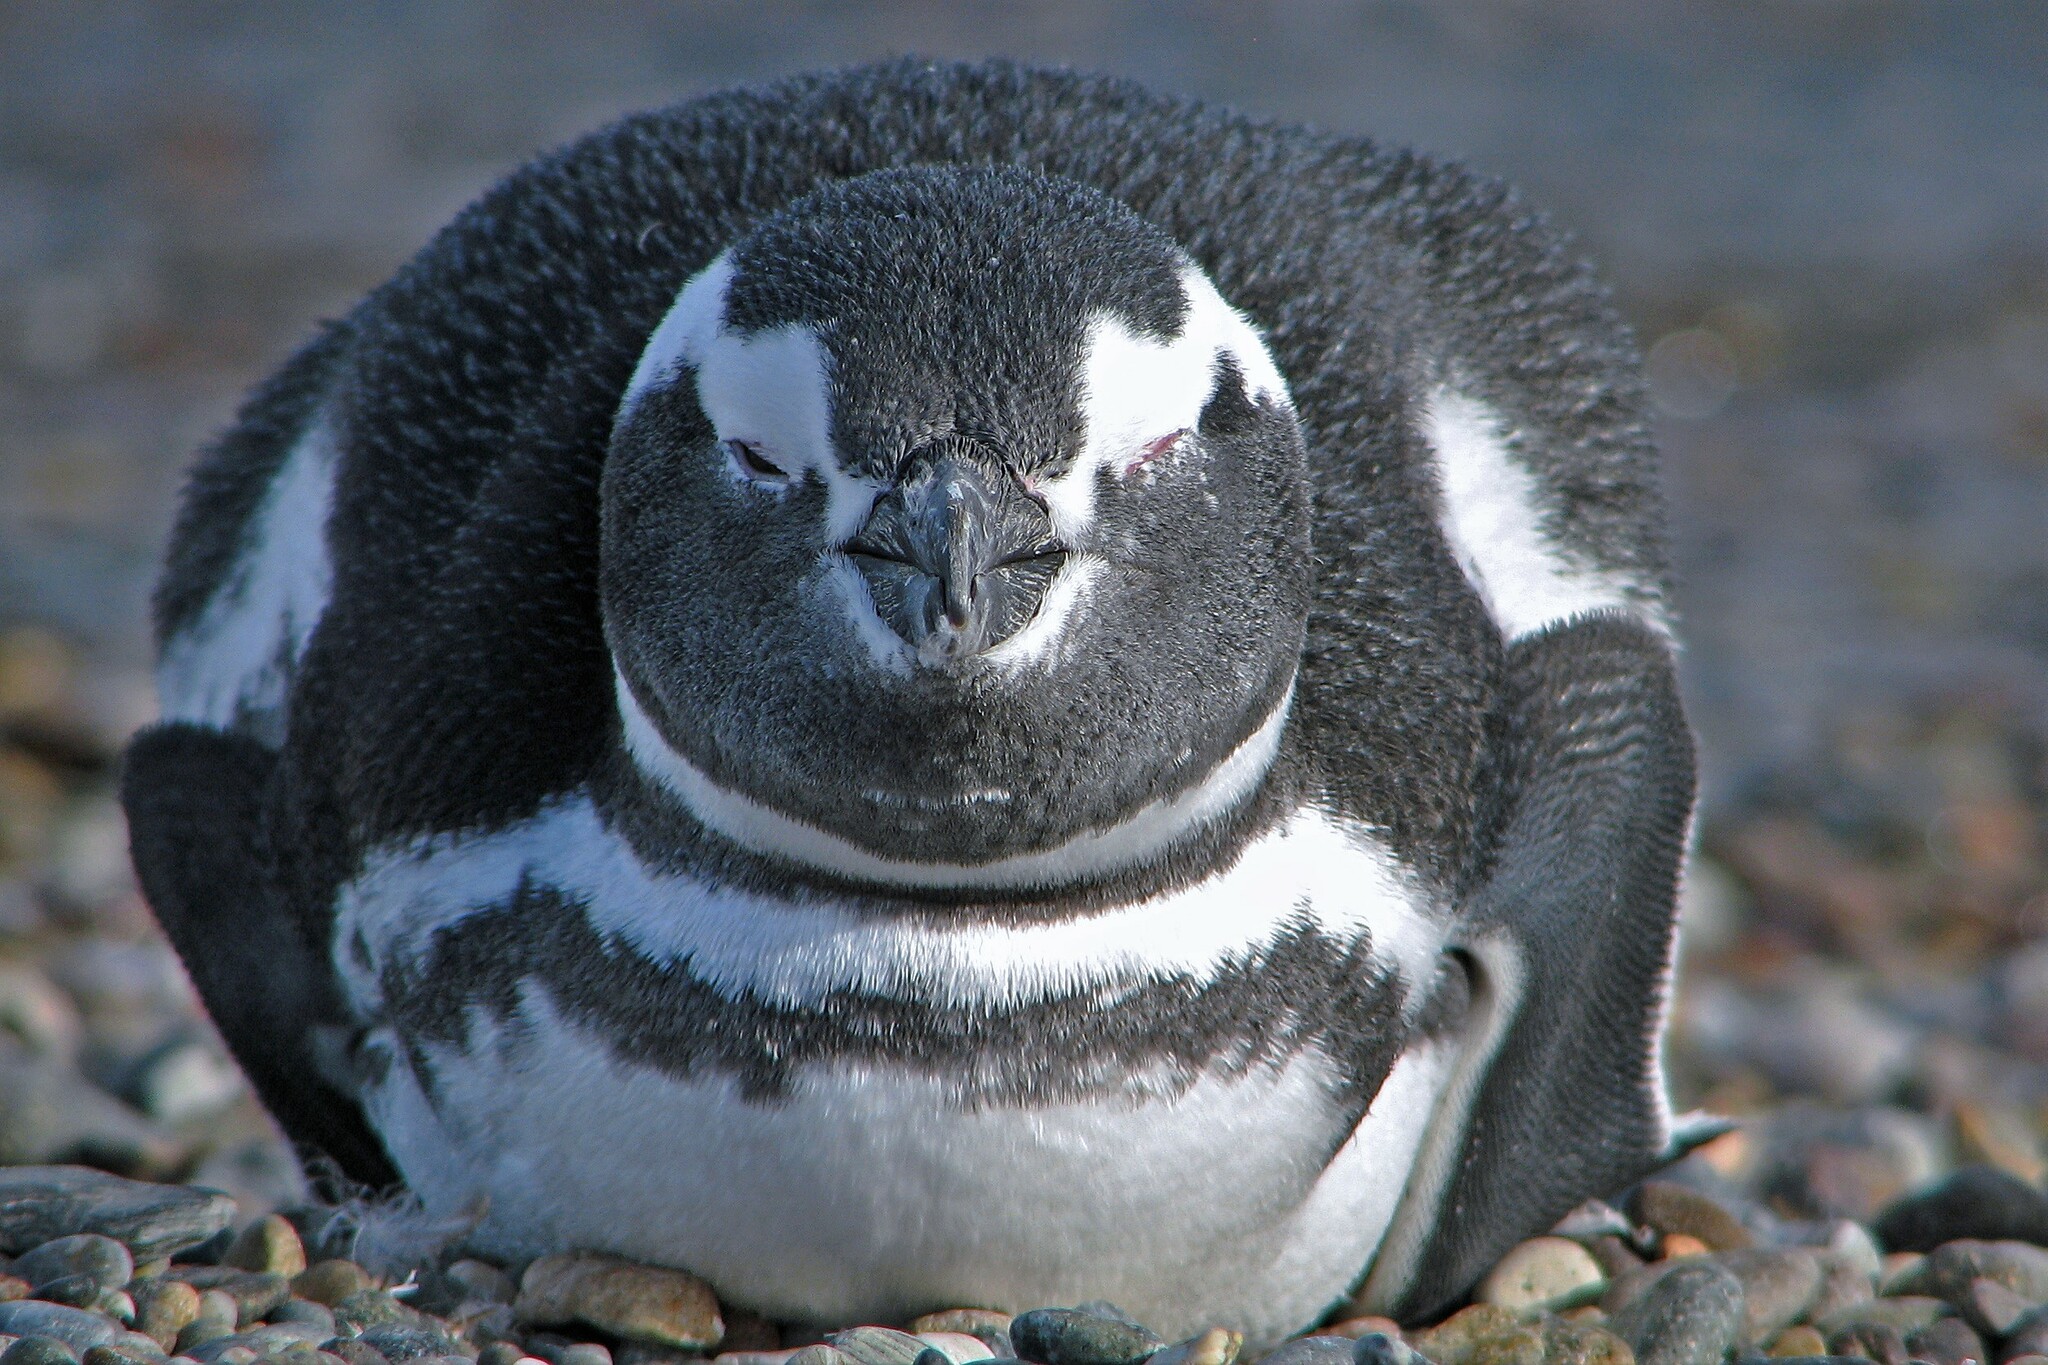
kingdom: Animalia
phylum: Chordata
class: Aves
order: Sphenisciformes
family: Spheniscidae
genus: Spheniscus
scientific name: Spheniscus magellanicus
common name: Magellanic penguin
